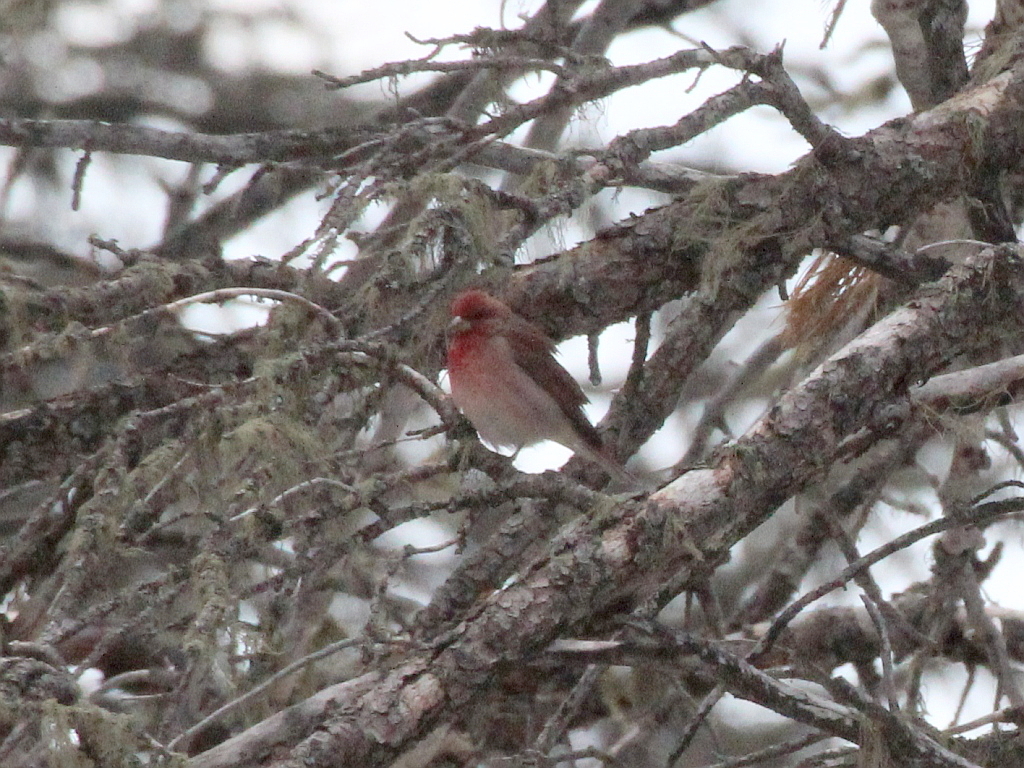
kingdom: Animalia
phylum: Chordata
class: Aves
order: Passeriformes
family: Fringillidae
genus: Carpodacus
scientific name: Carpodacus erythrinus
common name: Common rosefinch
